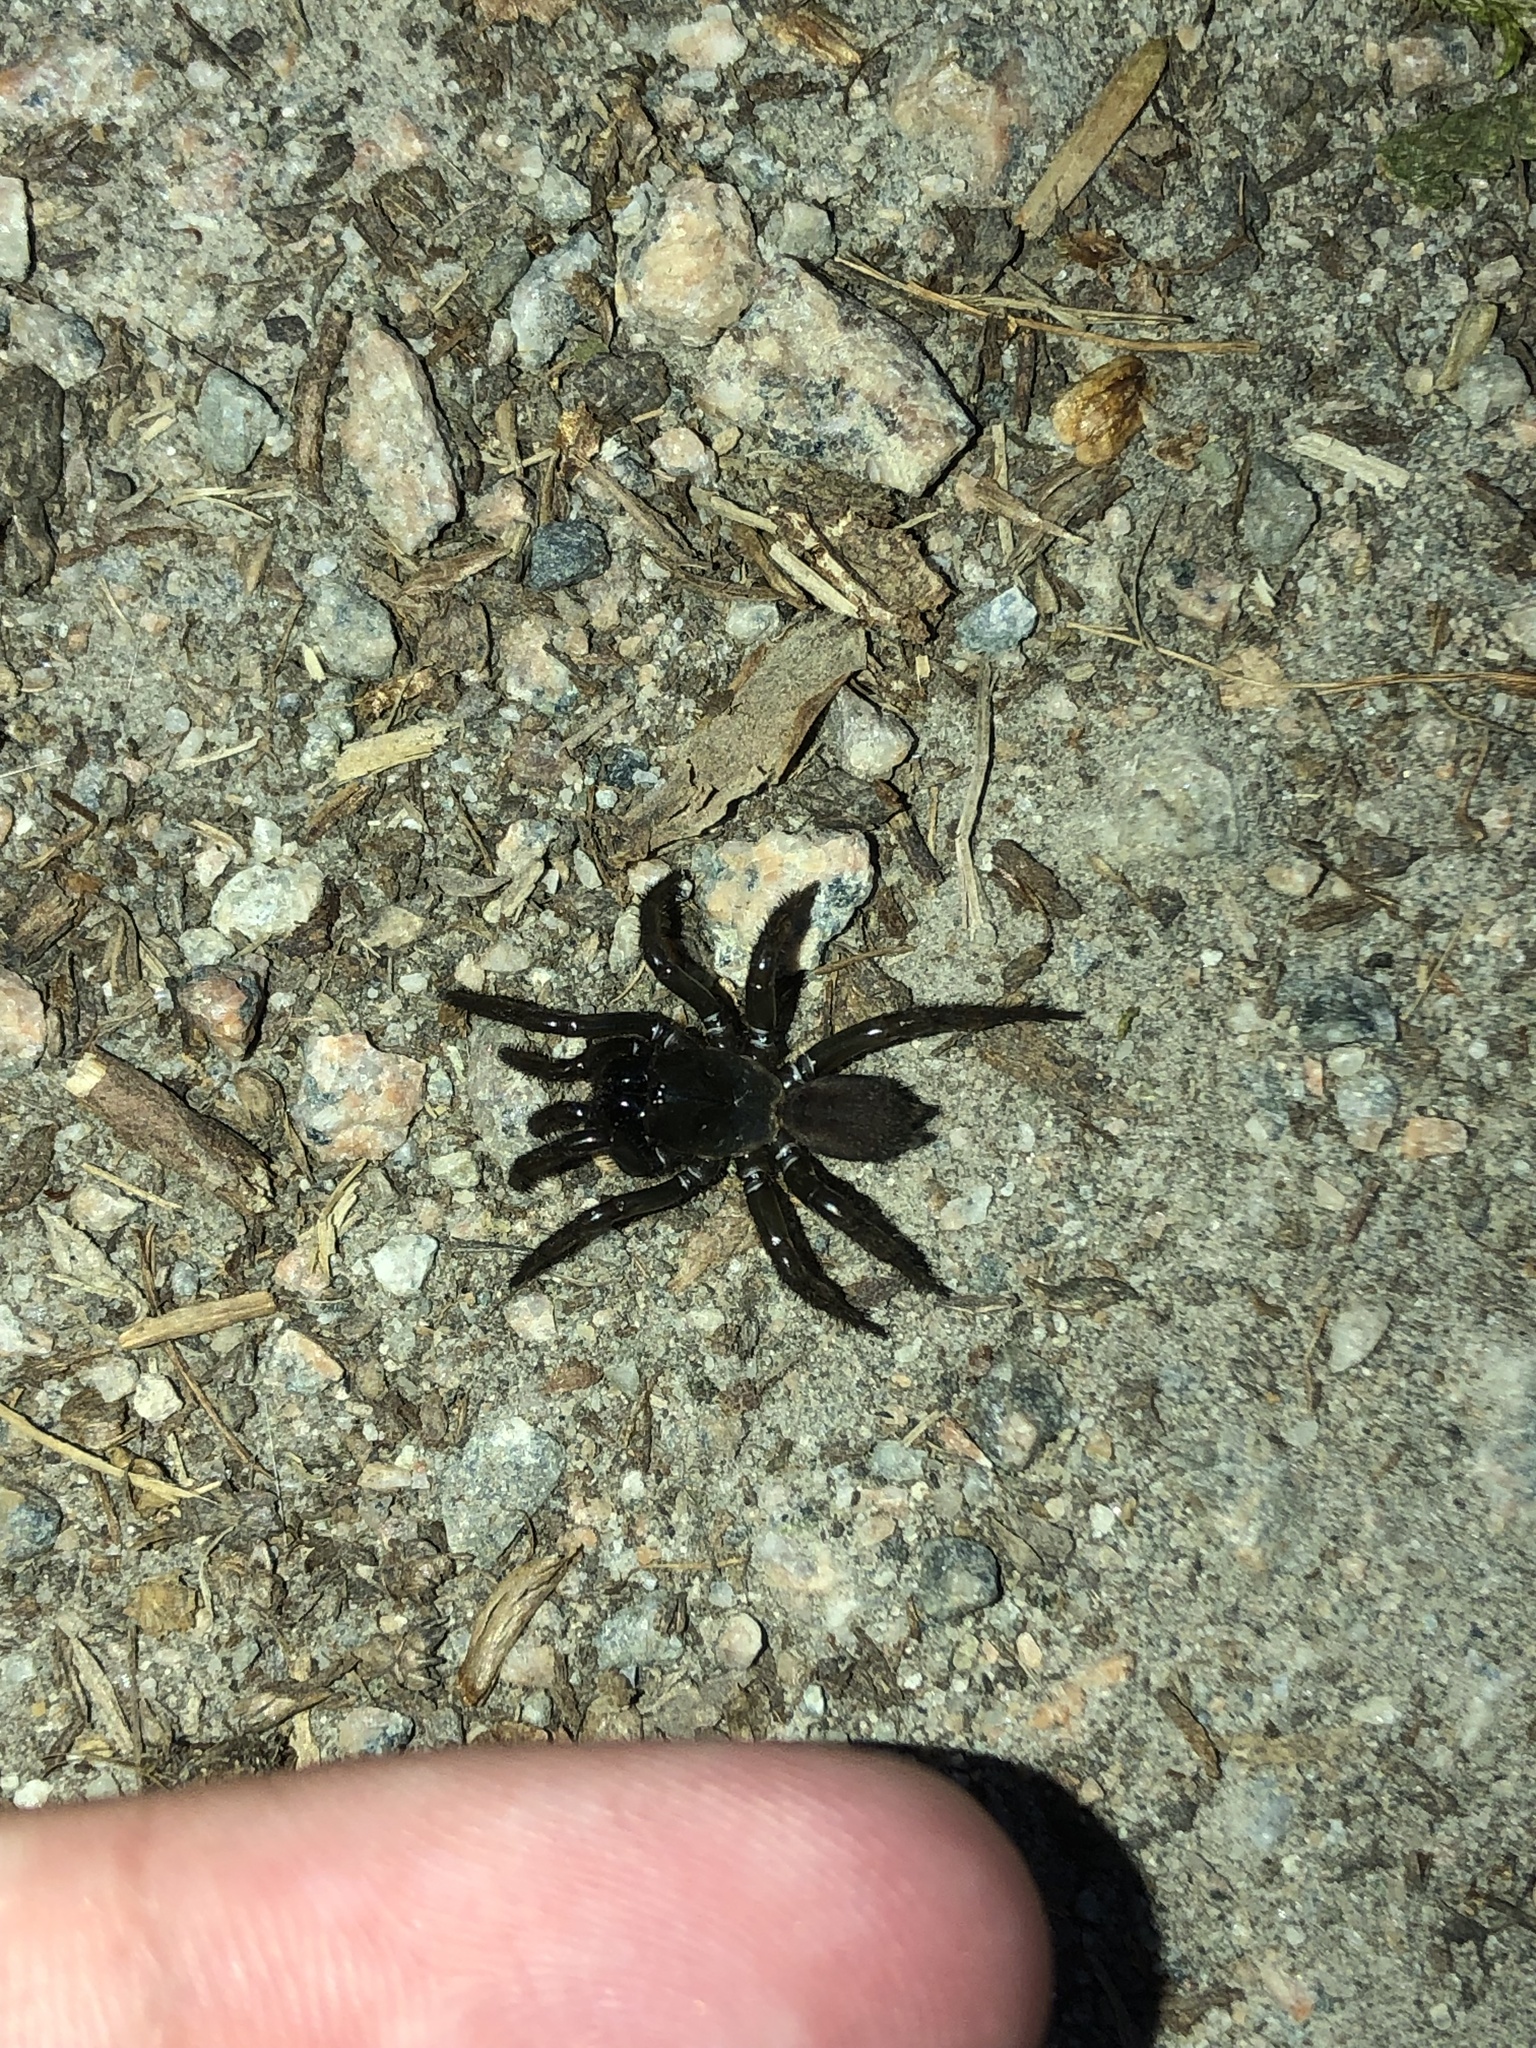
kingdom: Animalia
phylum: Arthropoda
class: Arachnida
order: Araneae
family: Antrodiaetidae
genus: Antrodiaetus
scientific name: Antrodiaetus pacificus
